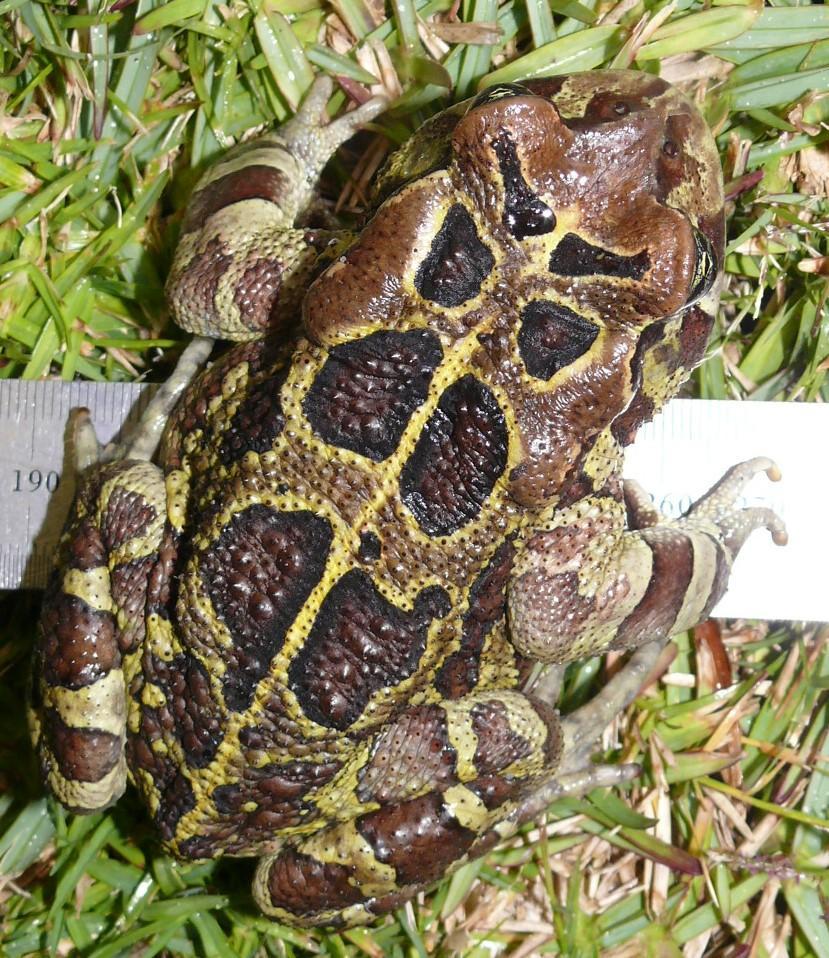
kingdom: Animalia
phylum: Chordata
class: Amphibia
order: Anura
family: Bufonidae
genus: Sclerophrys
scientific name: Sclerophrys pantherina
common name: Panther toad
